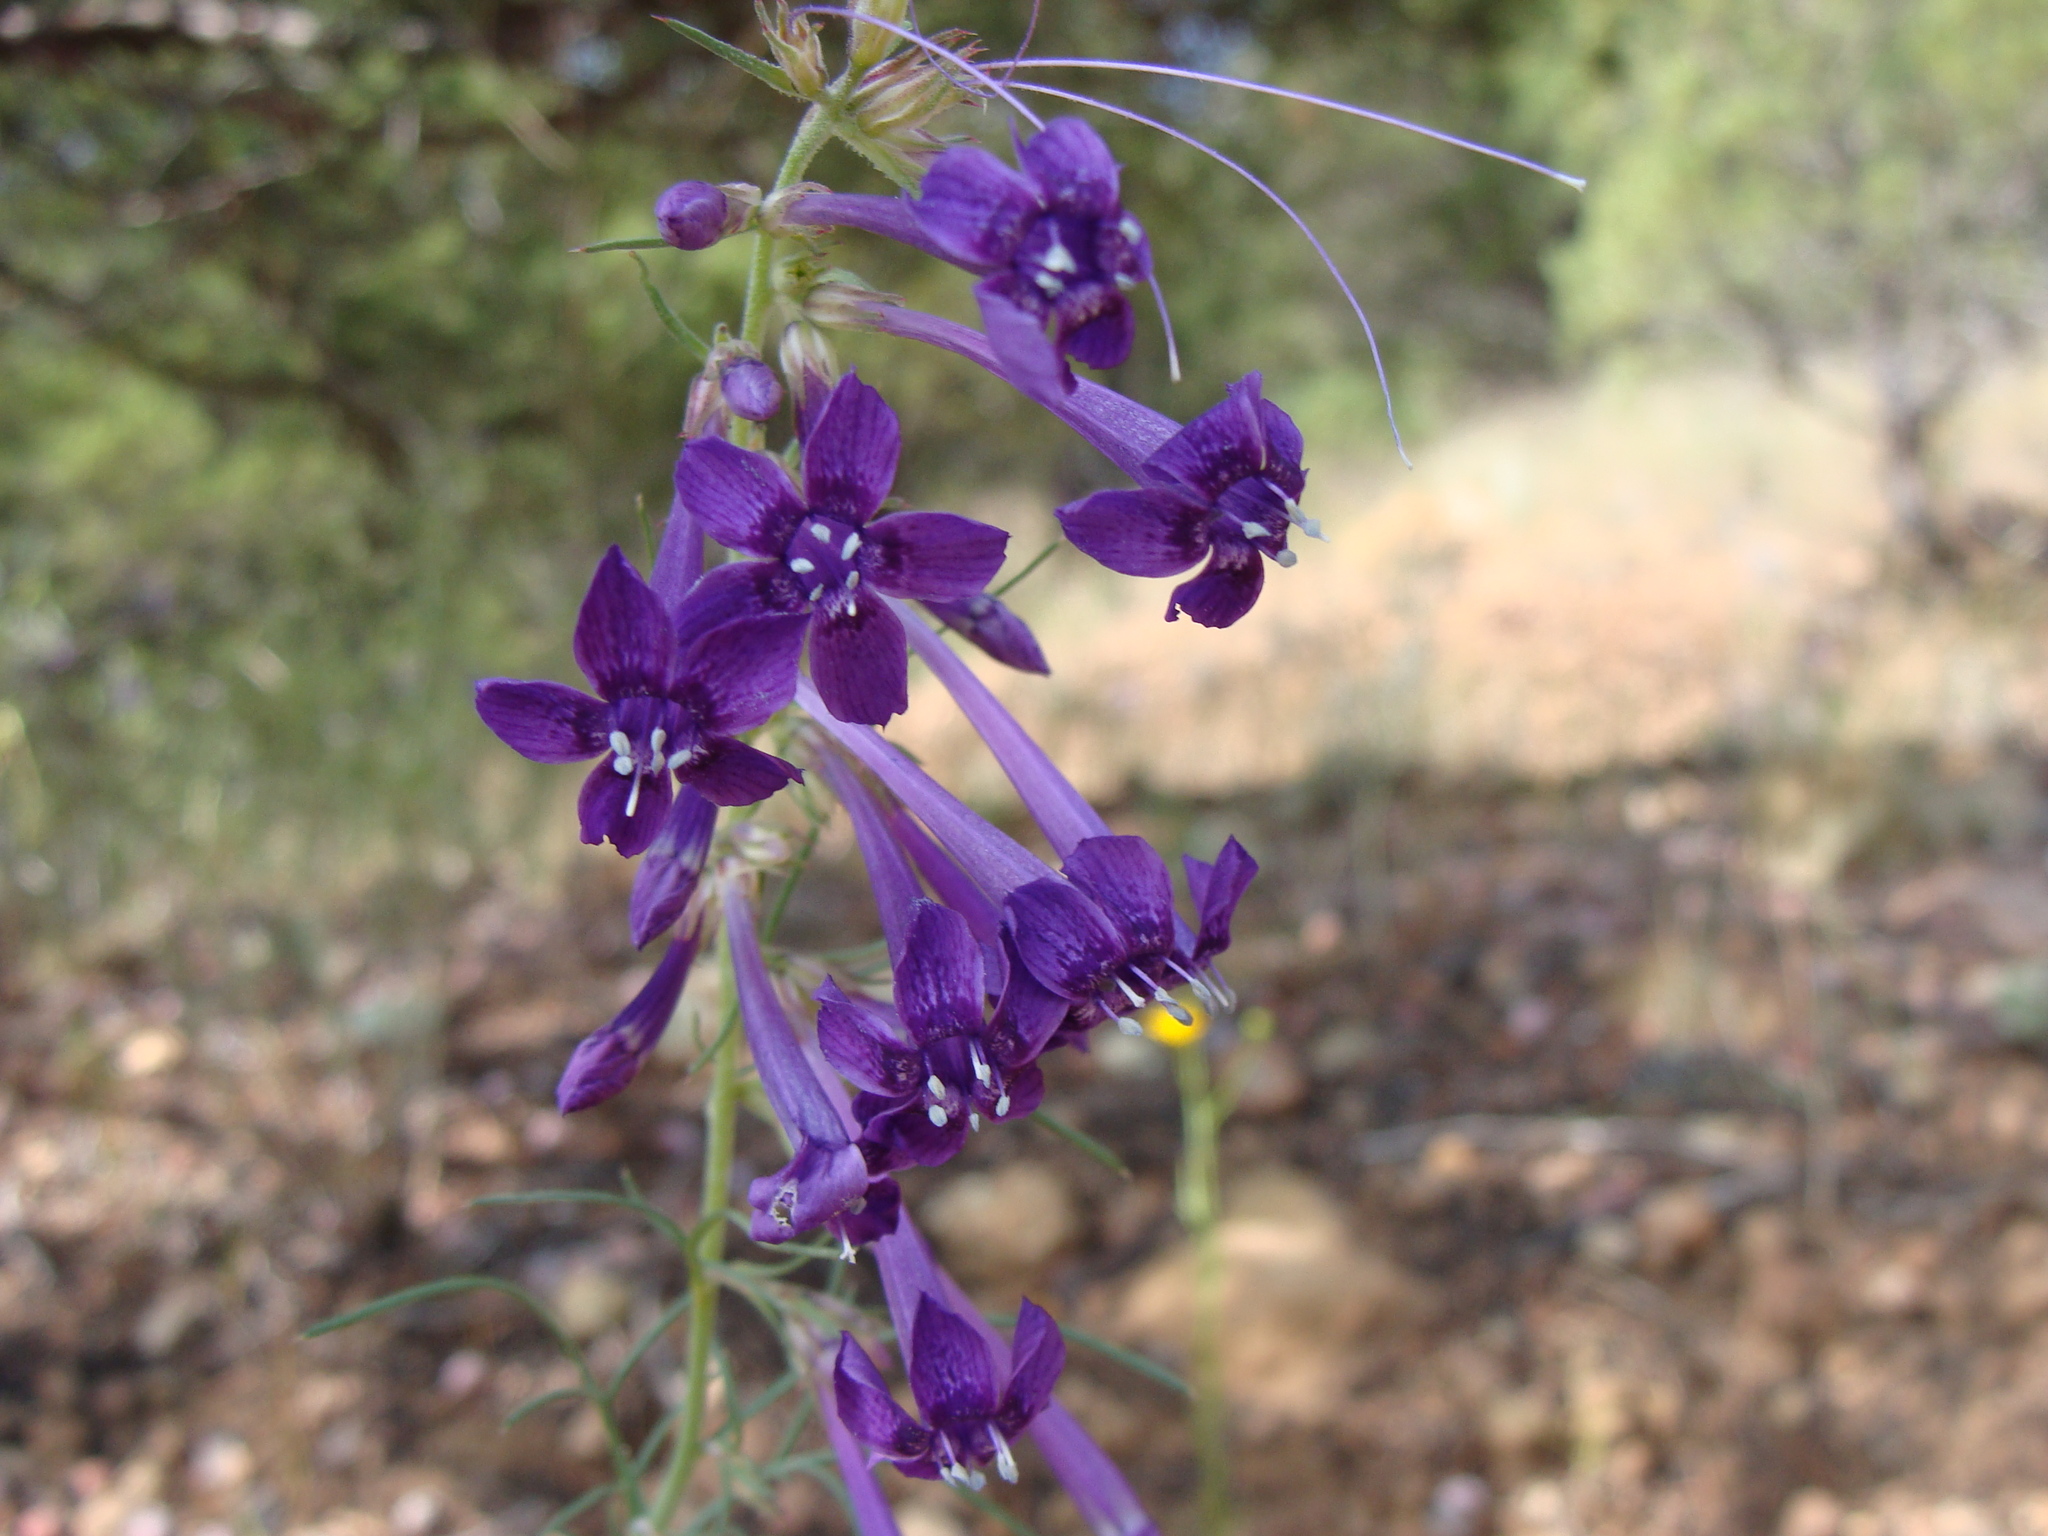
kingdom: Plantae
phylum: Tracheophyta
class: Magnoliopsida
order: Ericales
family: Polemoniaceae
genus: Ipomopsis
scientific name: Ipomopsis thurberi
